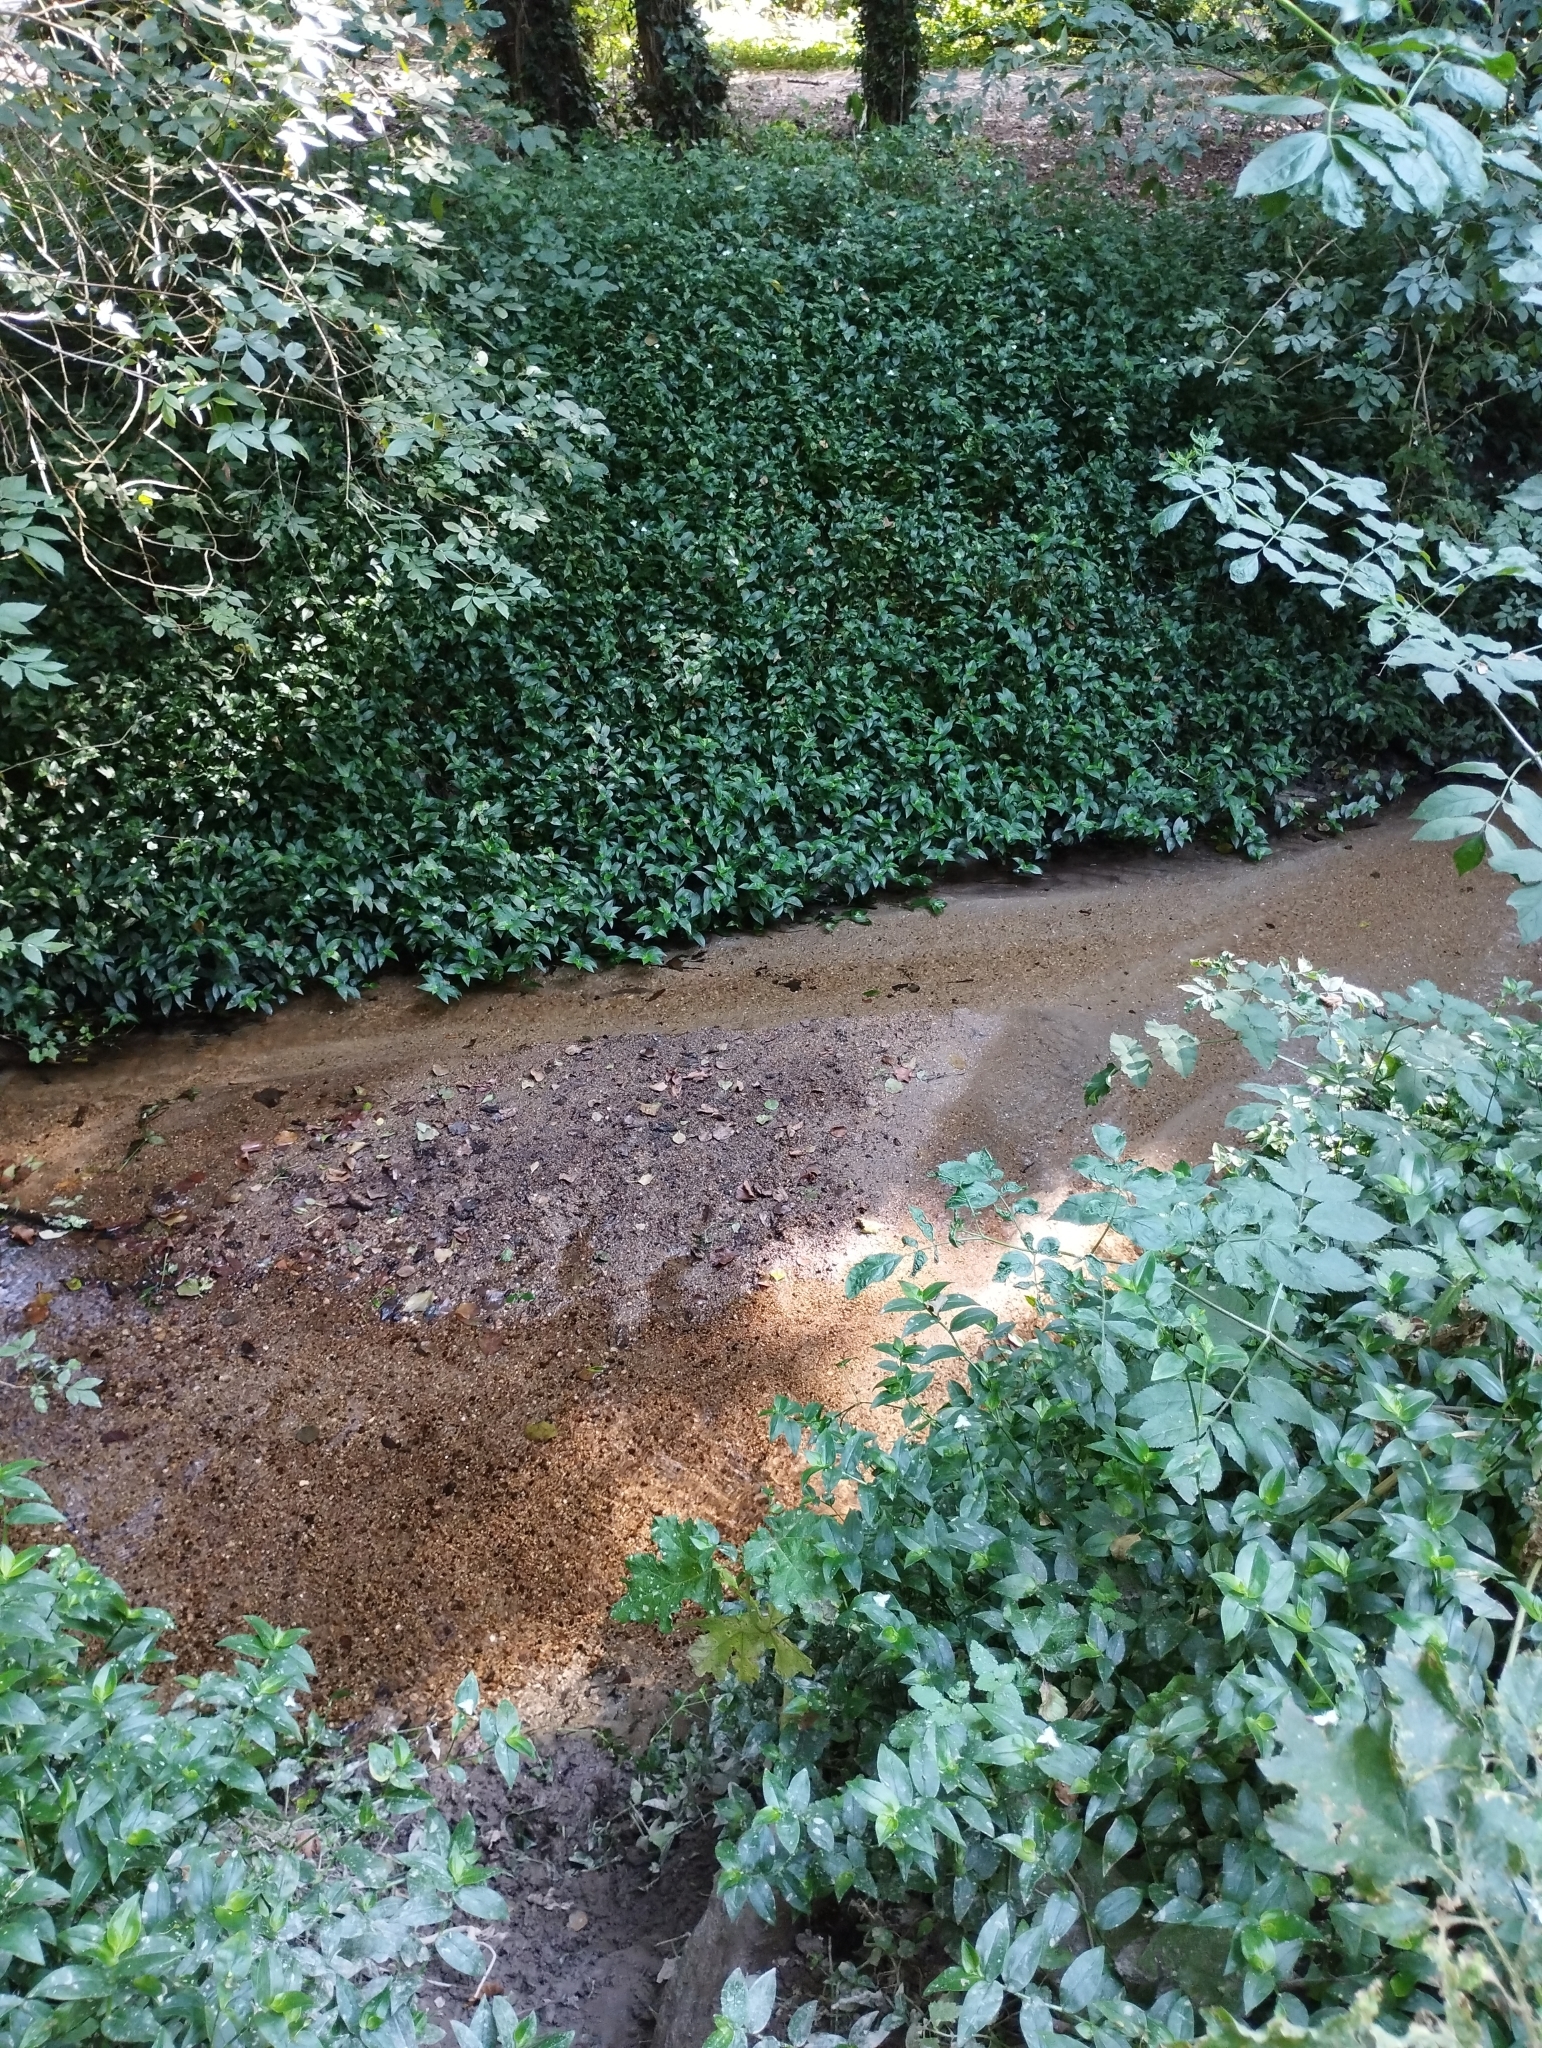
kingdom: Plantae
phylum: Tracheophyta
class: Liliopsida
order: Commelinales
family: Commelinaceae
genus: Tradescantia
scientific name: Tradescantia fluminensis
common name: Wandering-jew
